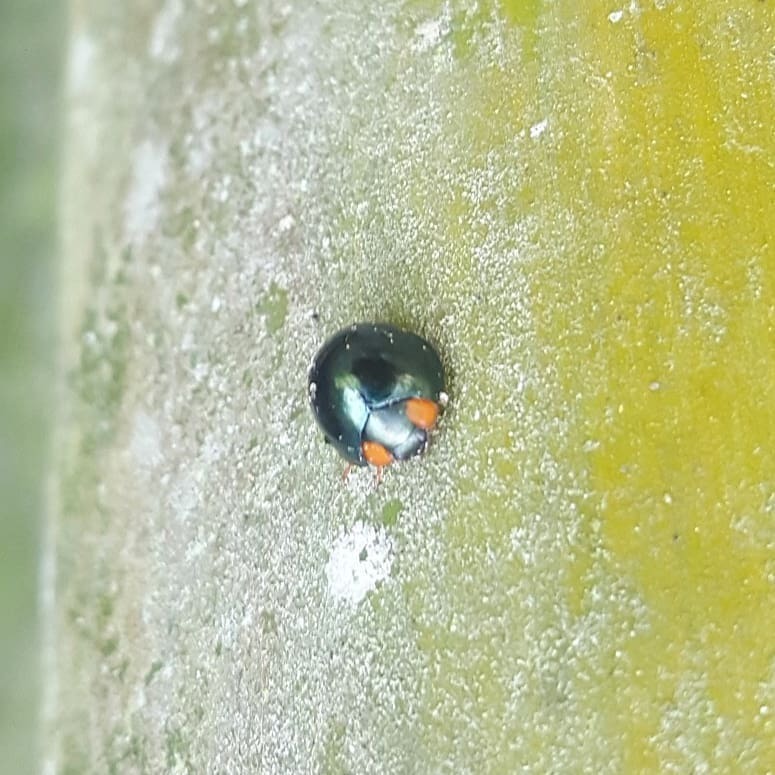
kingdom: Animalia
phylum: Arthropoda
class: Insecta
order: Coleoptera
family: Coccinellidae
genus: Curinus
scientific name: Curinus coeruleus
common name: Ladybird beetle
